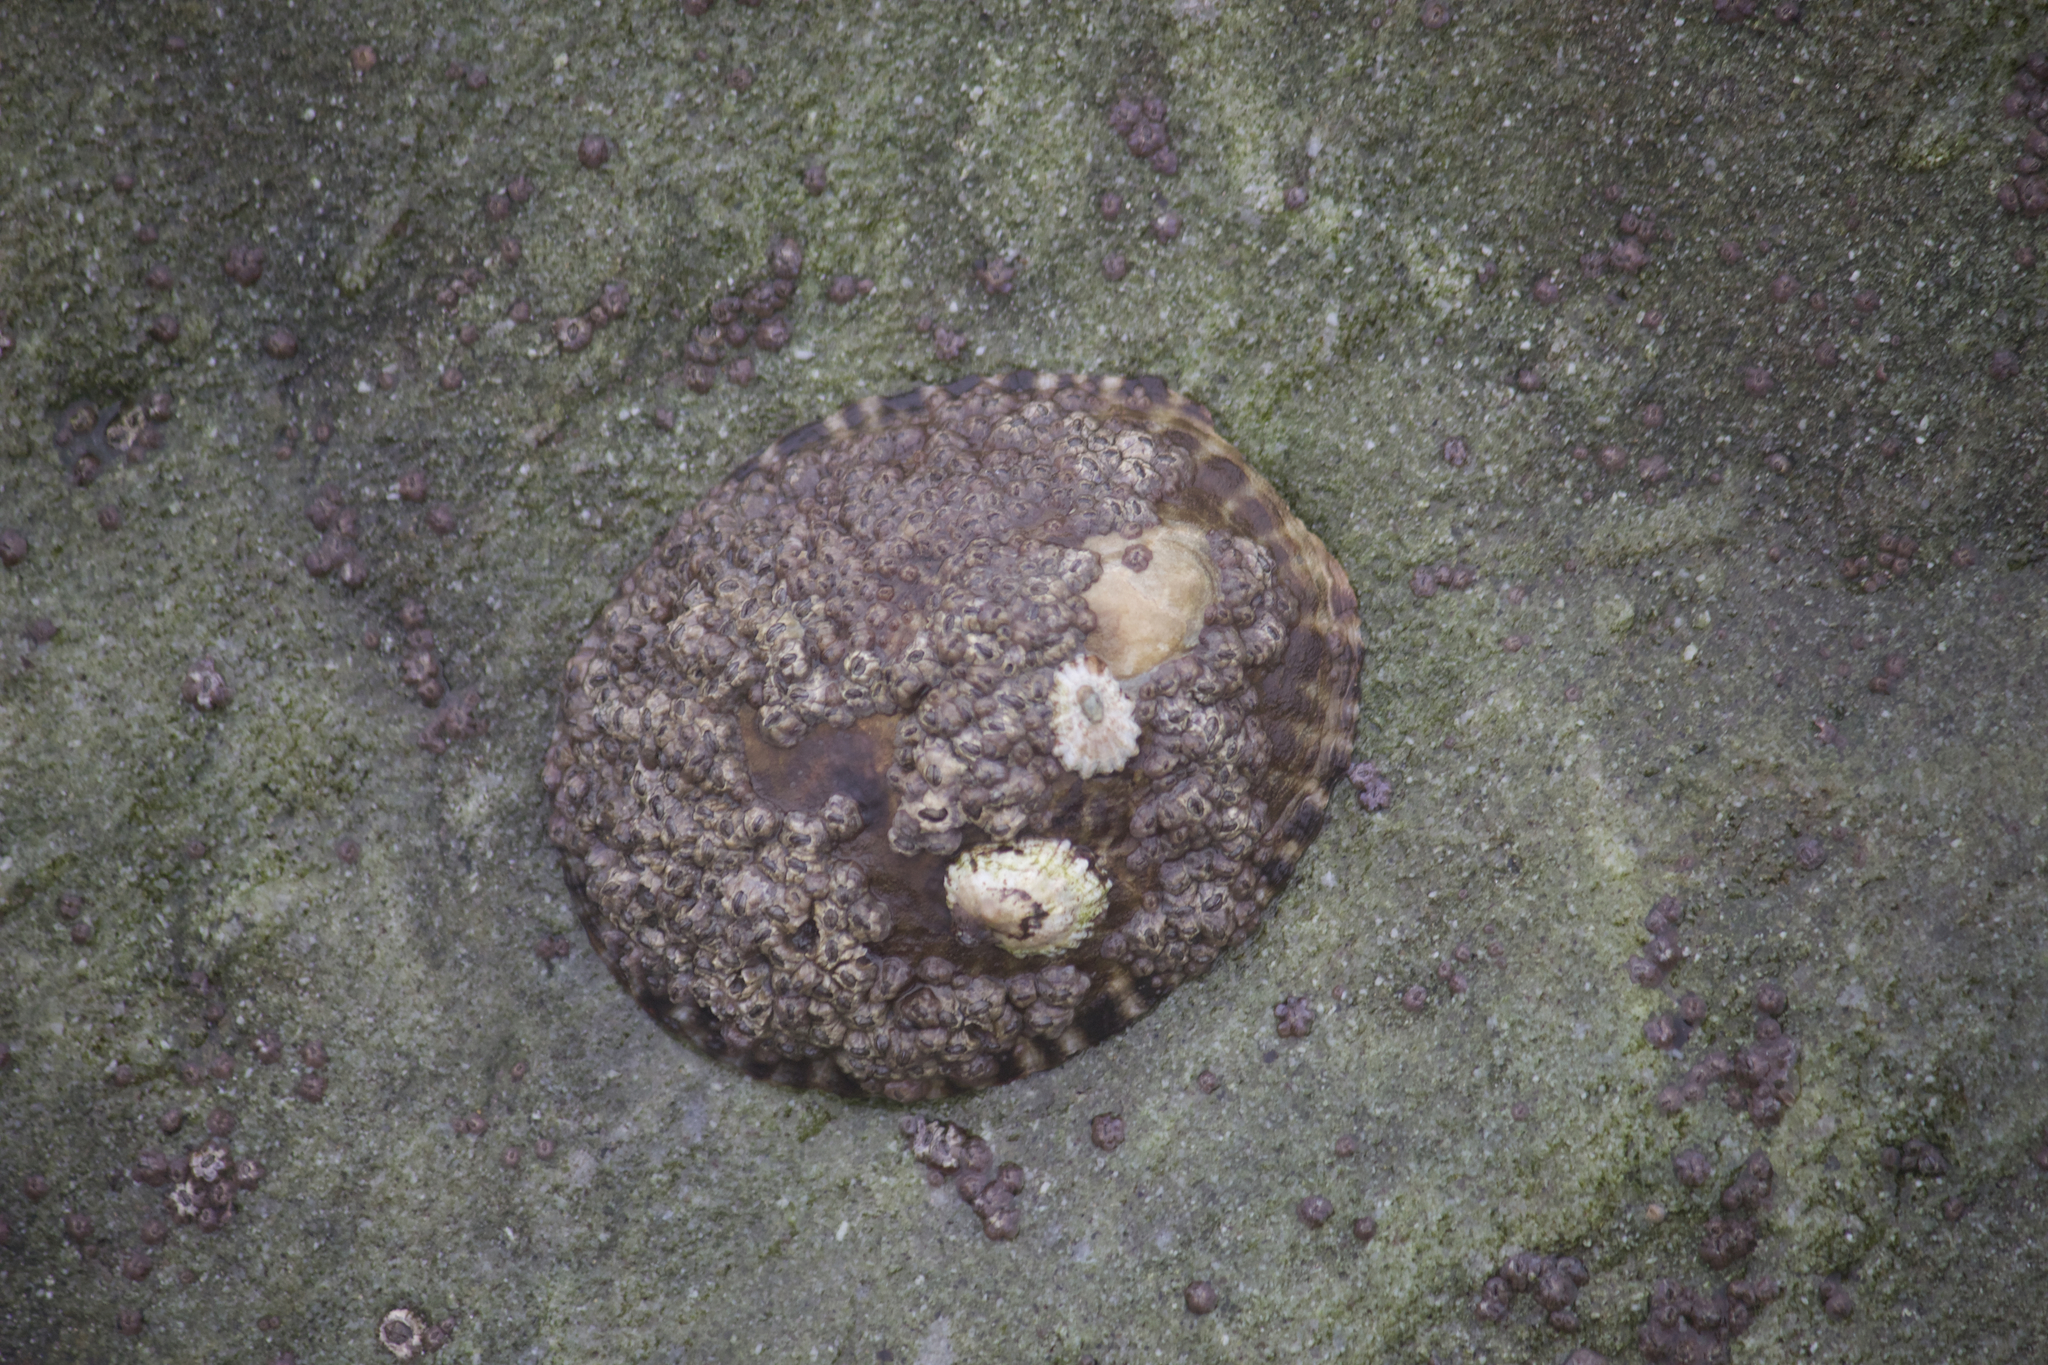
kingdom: Animalia
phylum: Mollusca
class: Gastropoda
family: Lottiidae
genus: Lottia
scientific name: Lottia gigantea
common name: Owl limpet
